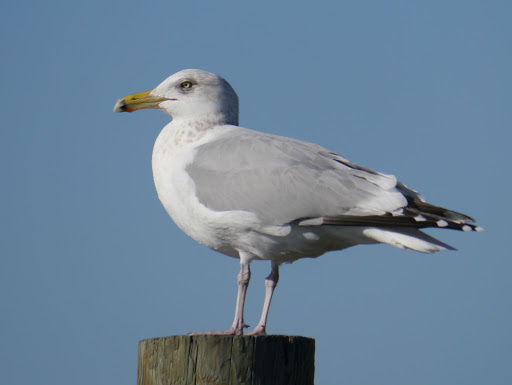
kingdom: Animalia
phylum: Chordata
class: Aves
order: Charadriiformes
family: Laridae
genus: Larus
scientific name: Larus argentatus
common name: Herring gull
